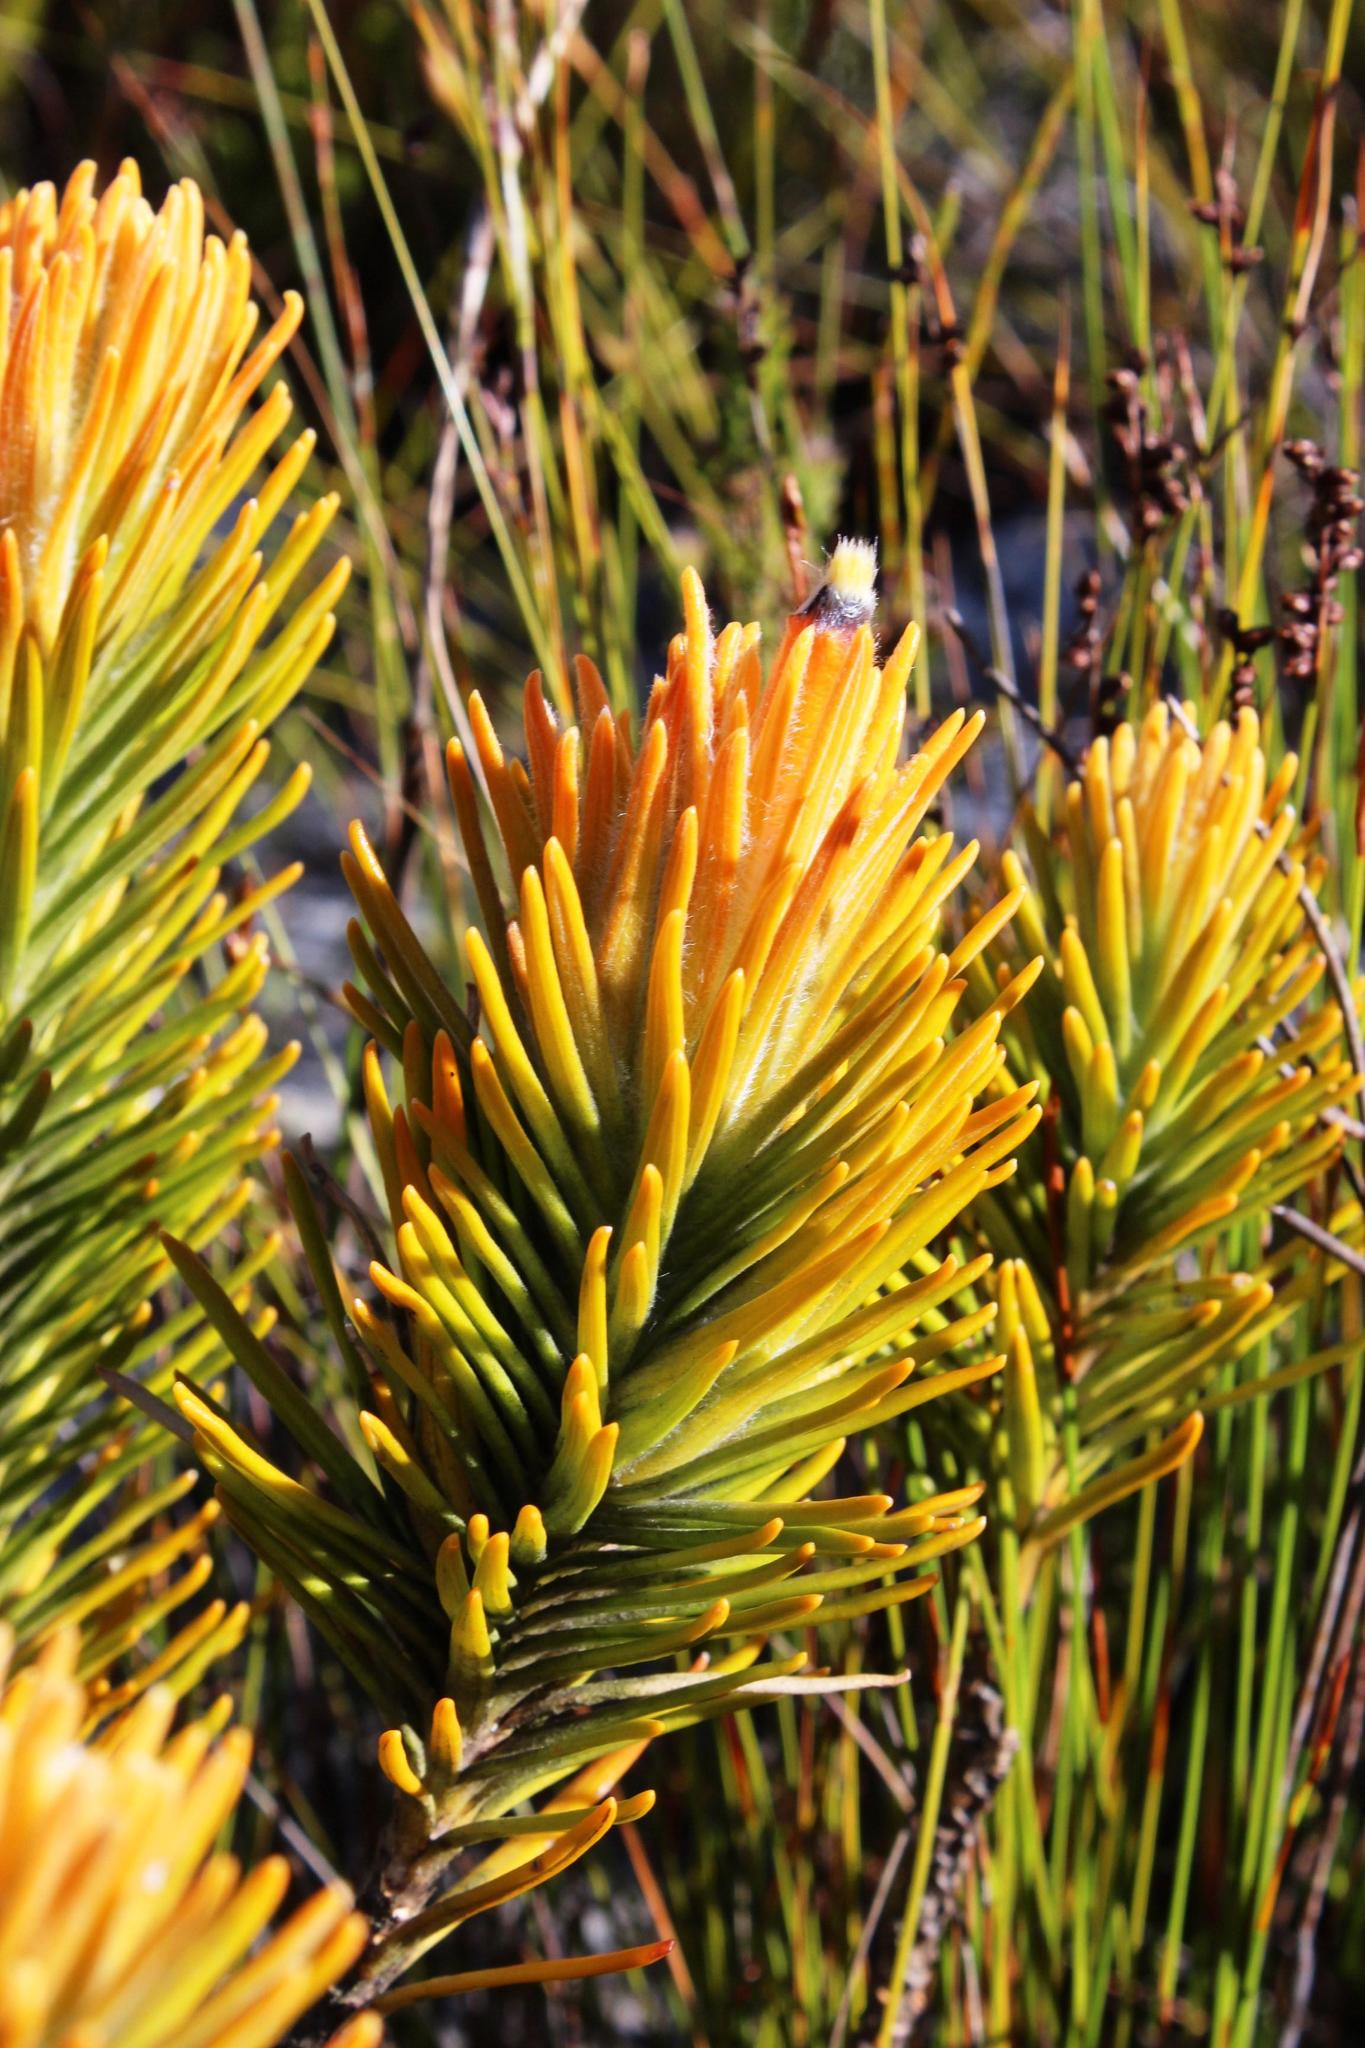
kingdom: Plantae
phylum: Tracheophyta
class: Magnoliopsida
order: Lamiales
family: Stilbaceae
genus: Retzia
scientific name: Retzia capensis
